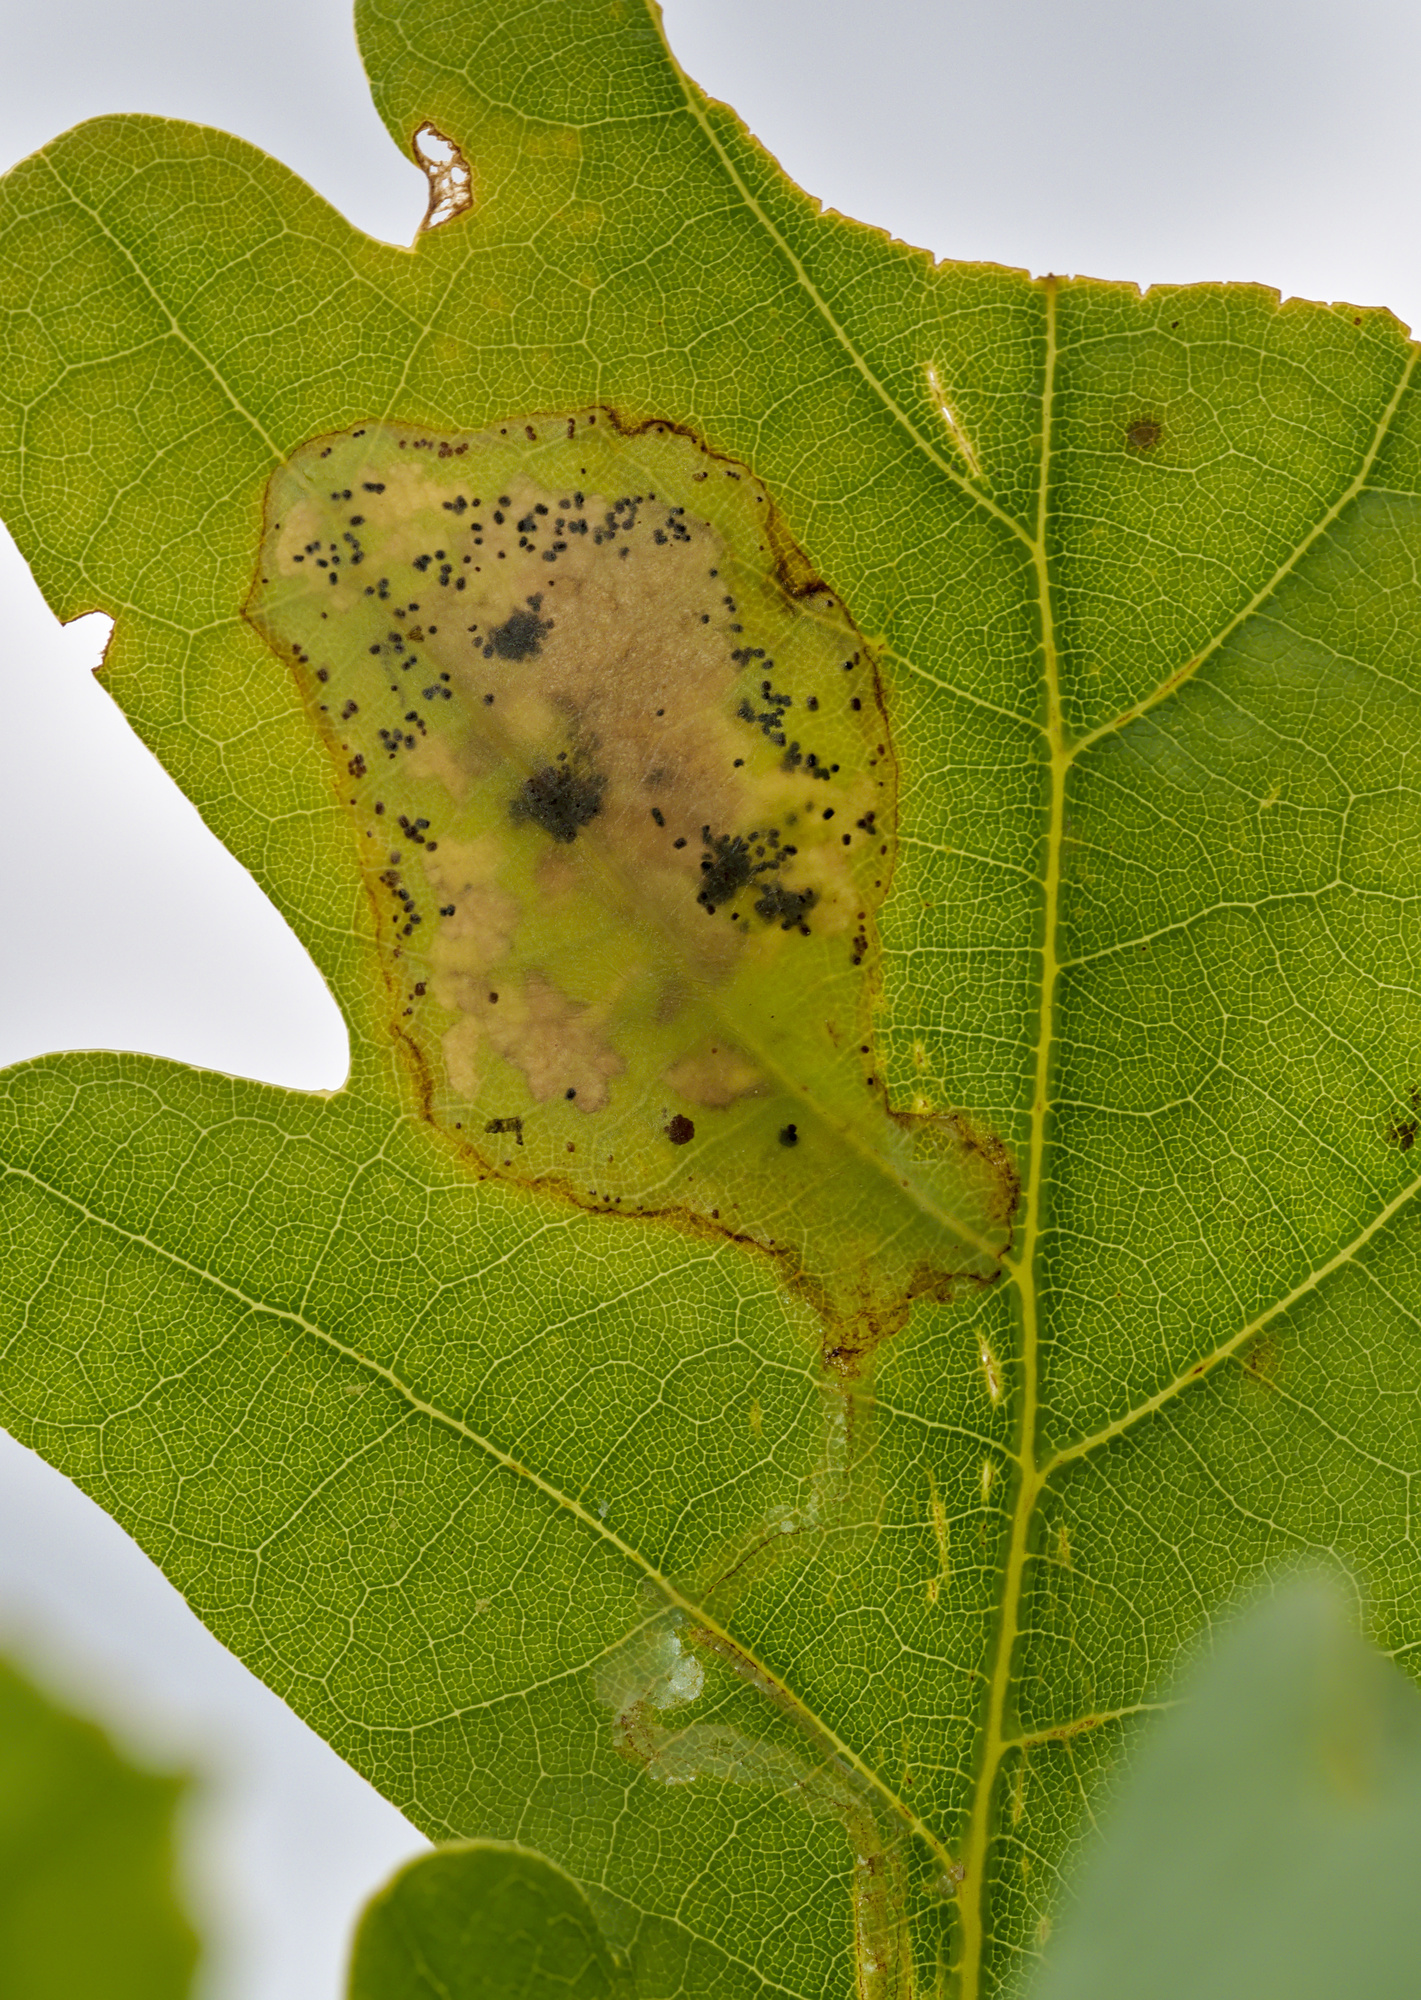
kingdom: Animalia
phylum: Arthropoda
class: Insecta
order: Lepidoptera
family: Gracillariidae
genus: Acrocercops
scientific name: Acrocercops brongniardella
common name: Brown oak slender
